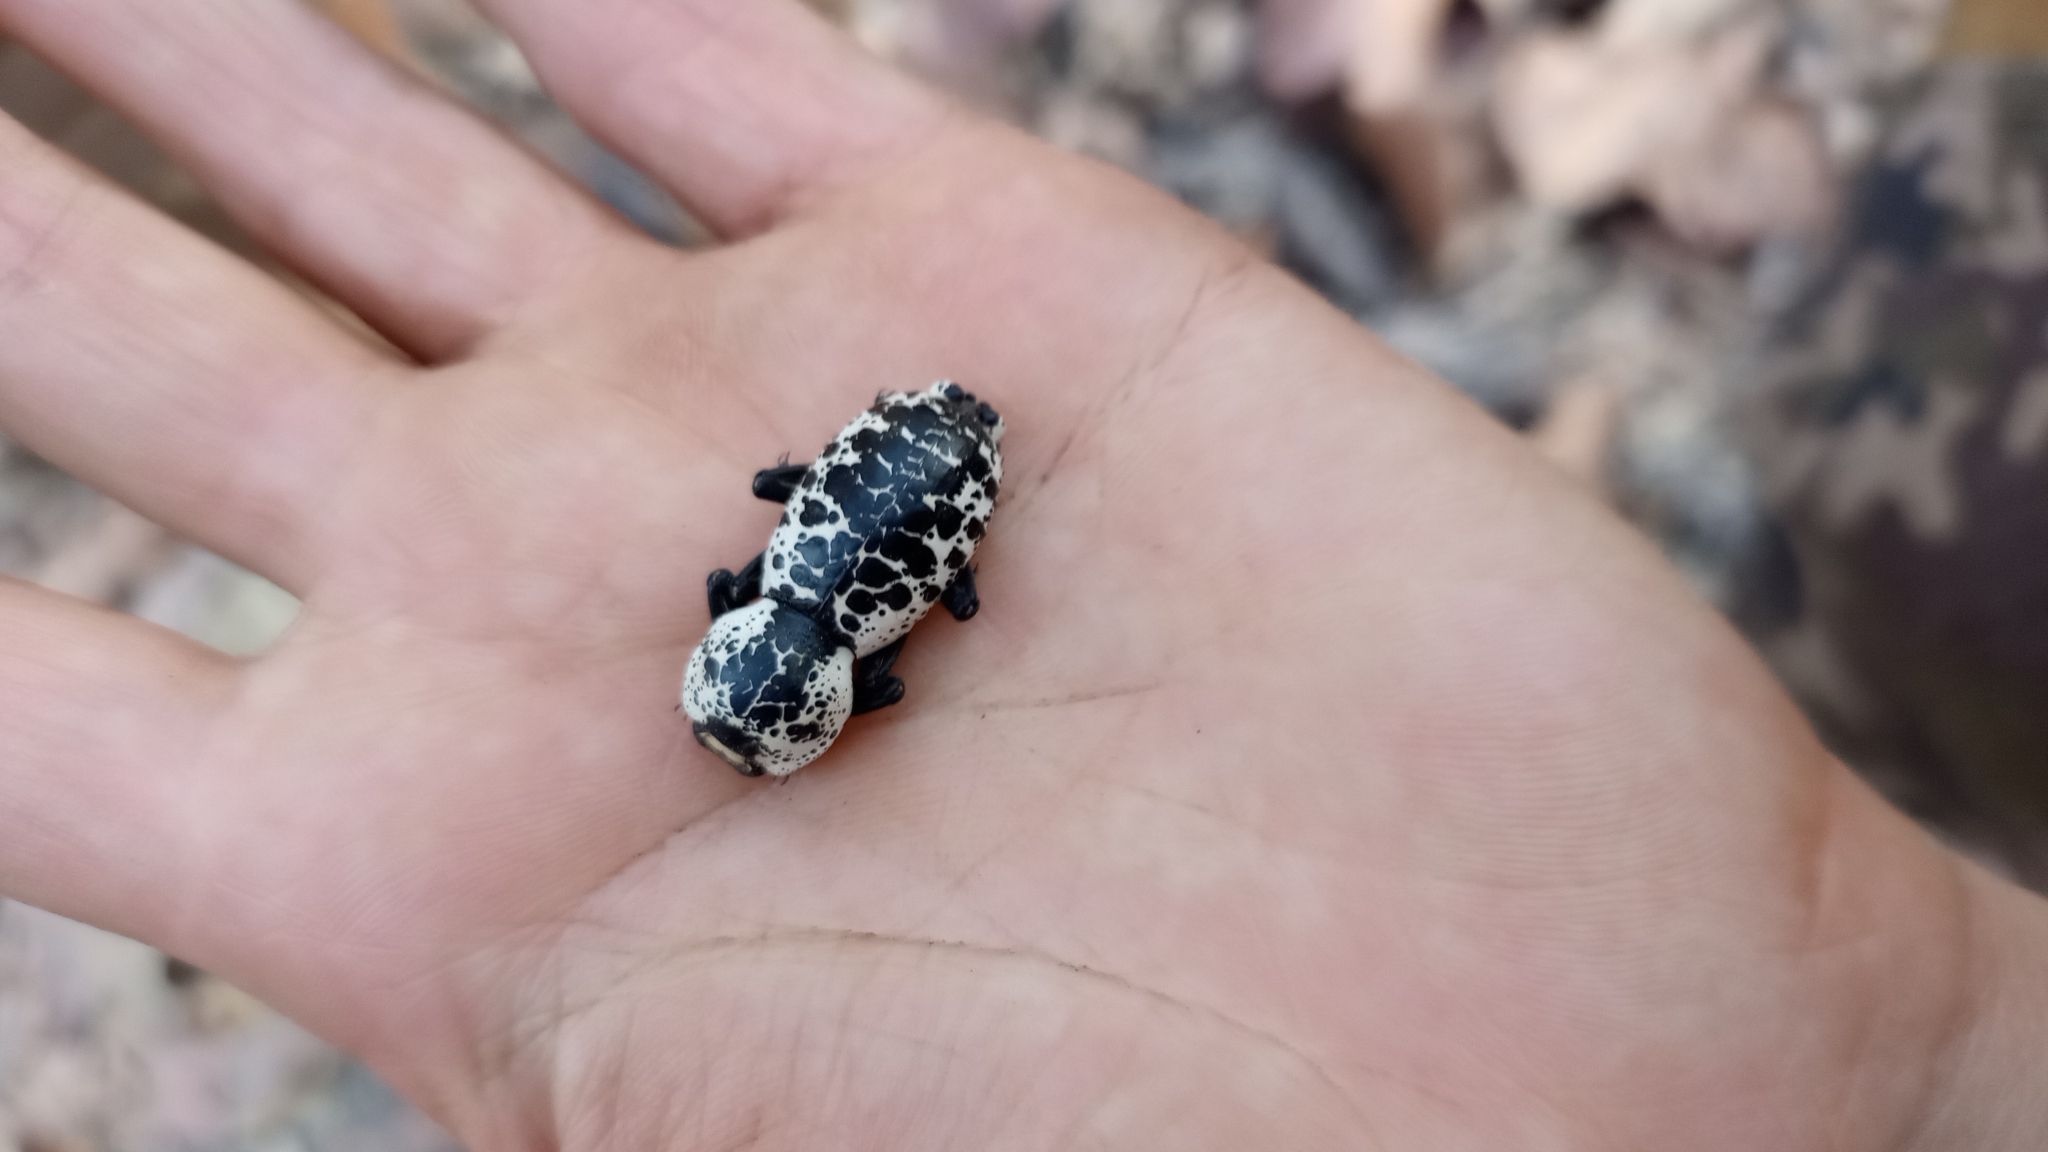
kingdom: Animalia
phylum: Arthropoda
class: Insecta
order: Coleoptera
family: Zopheridae
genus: Zopherus
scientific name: Zopherus nodulosus
